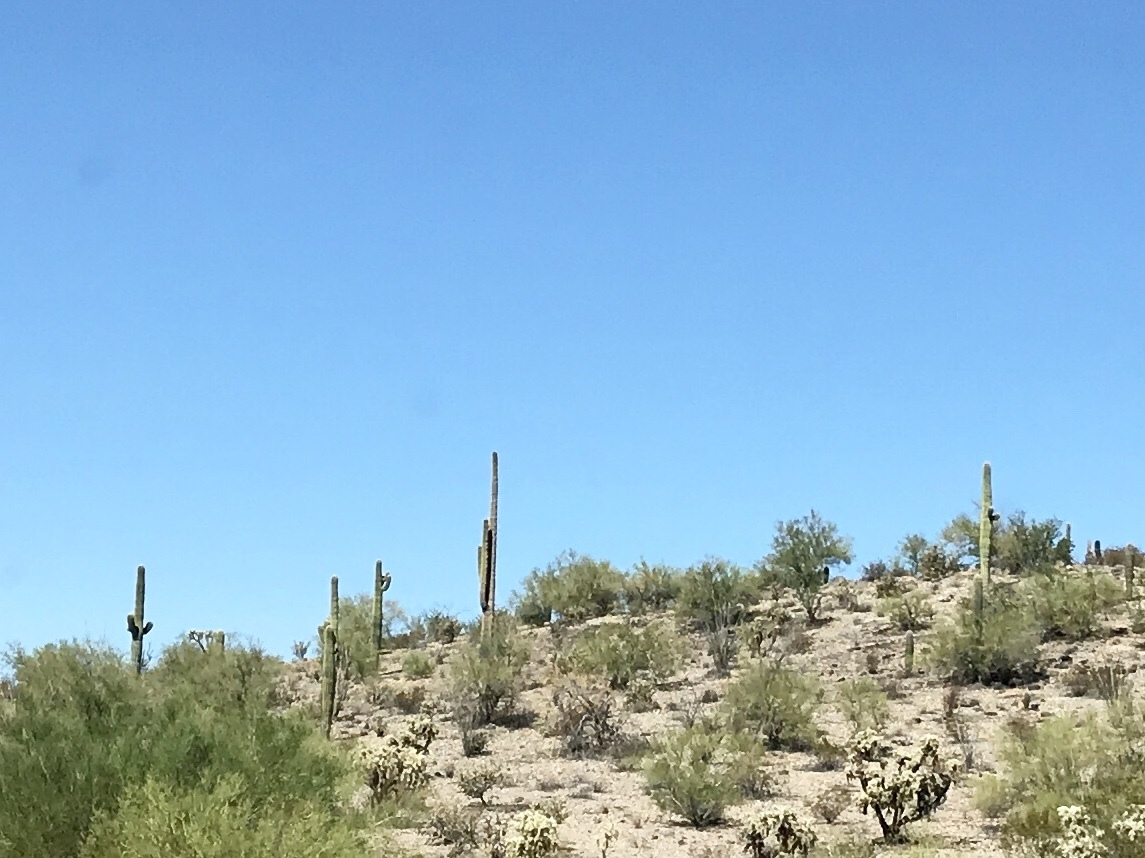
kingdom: Plantae
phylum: Tracheophyta
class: Magnoliopsida
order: Caryophyllales
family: Cactaceae
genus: Carnegiea
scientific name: Carnegiea gigantea
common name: Saguaro
